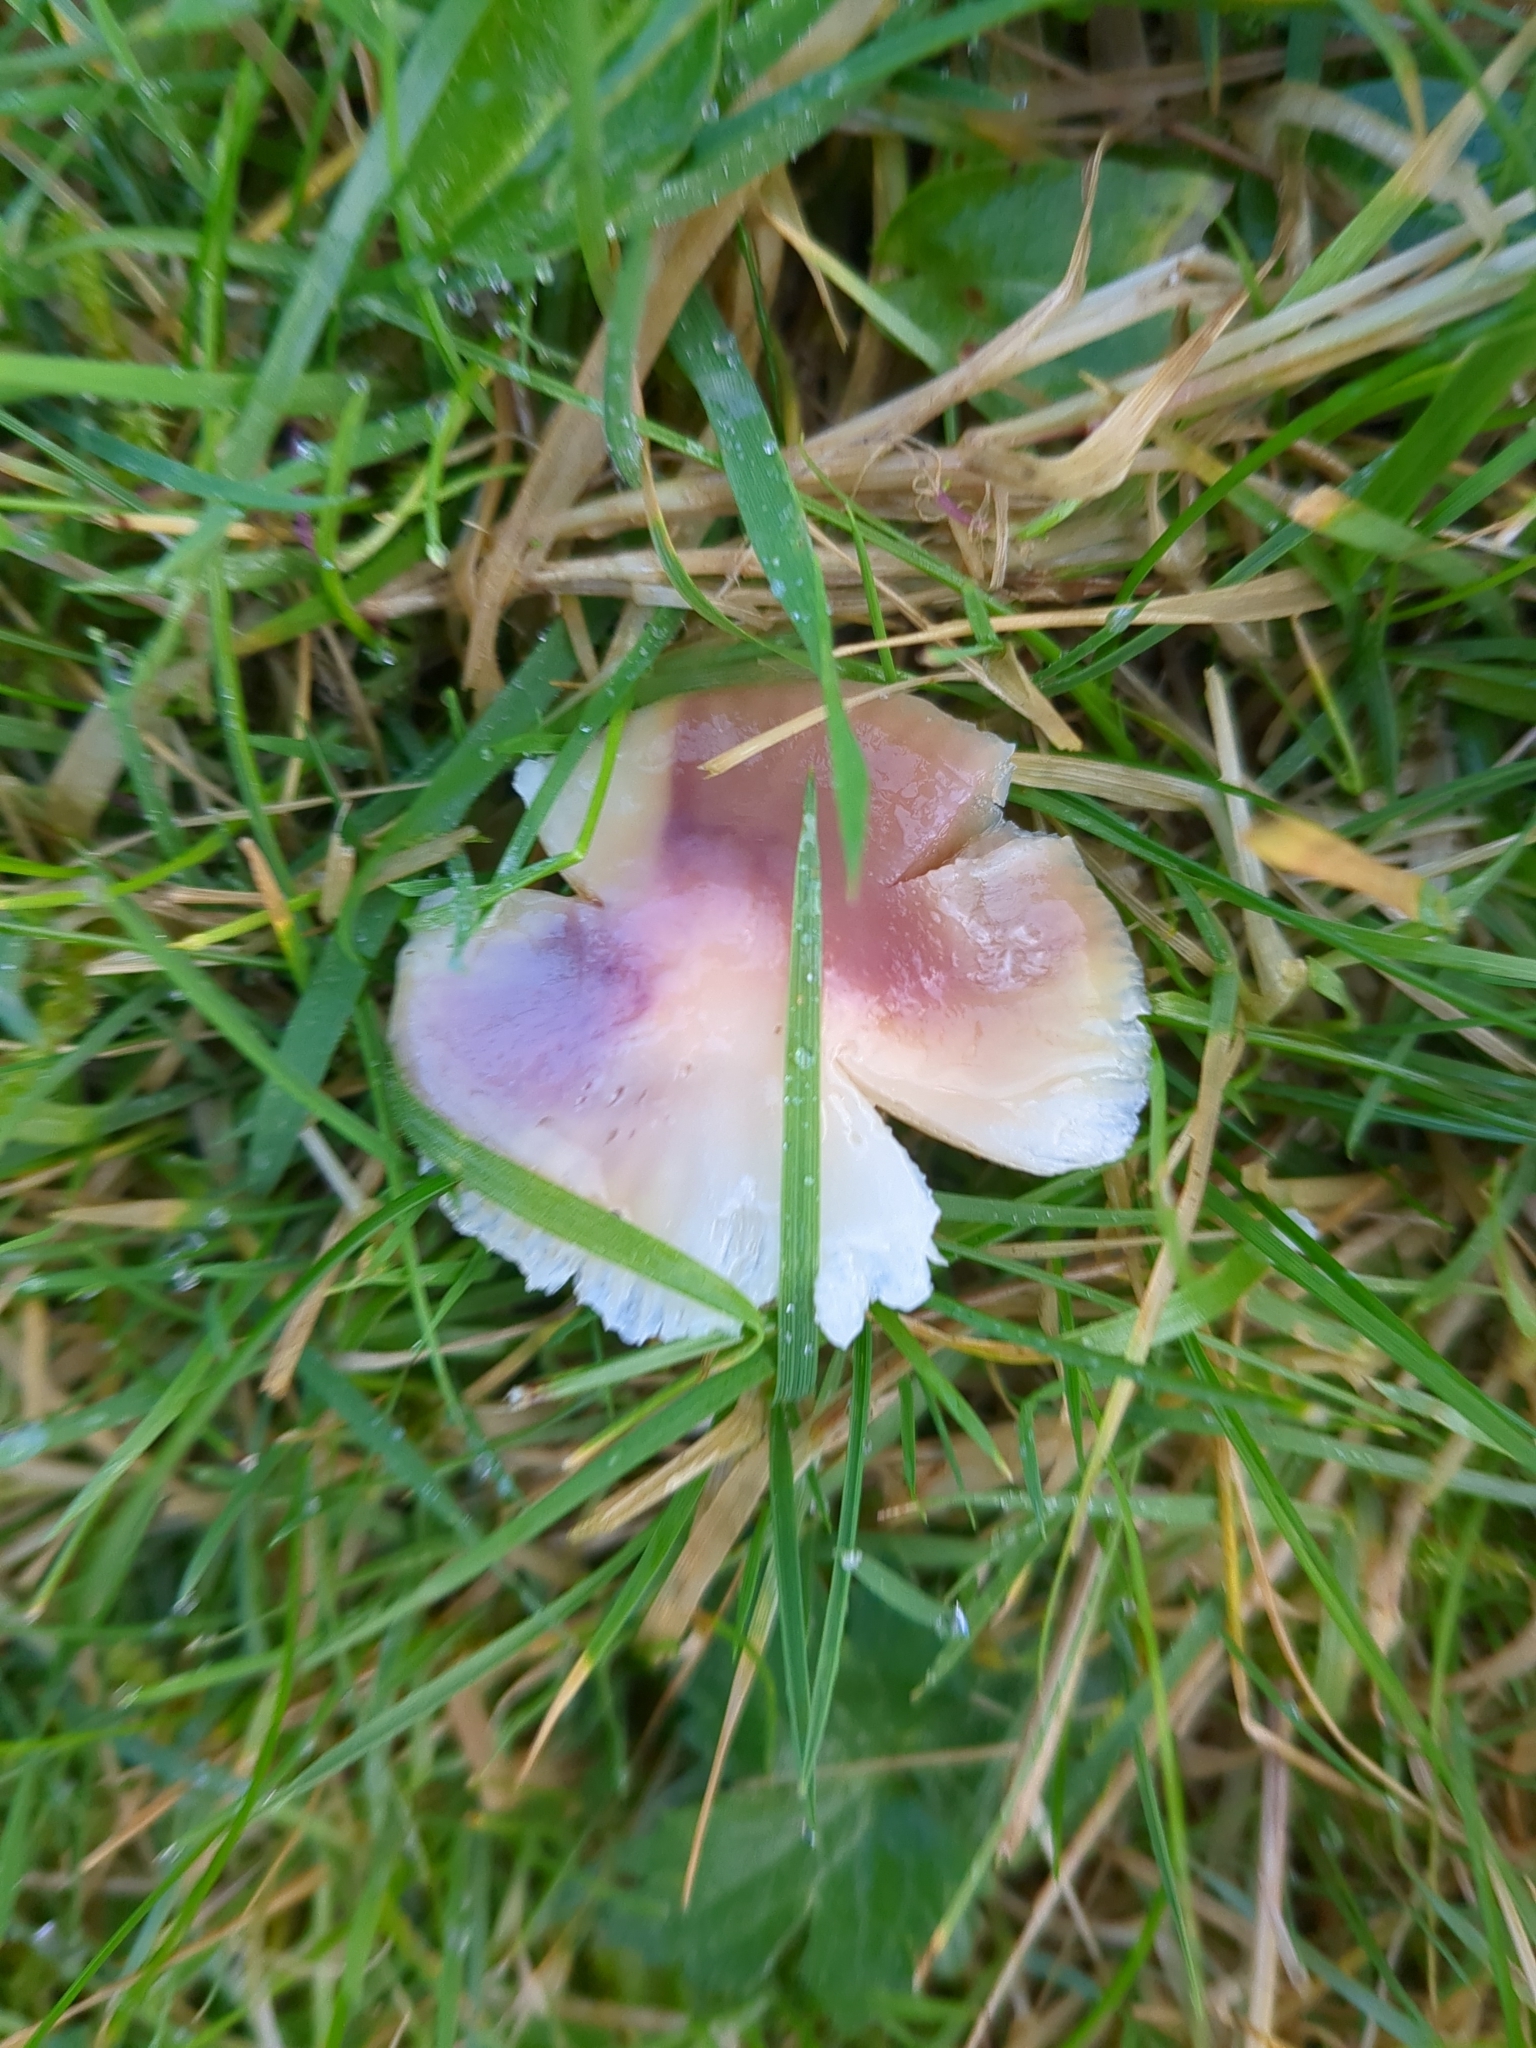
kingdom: Fungi
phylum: Basidiomycota
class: Agaricomycetes
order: Agaricales
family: Hygrophoraceae
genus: Gliophorus
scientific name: Gliophorus reginae
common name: Jubilee waxcap
